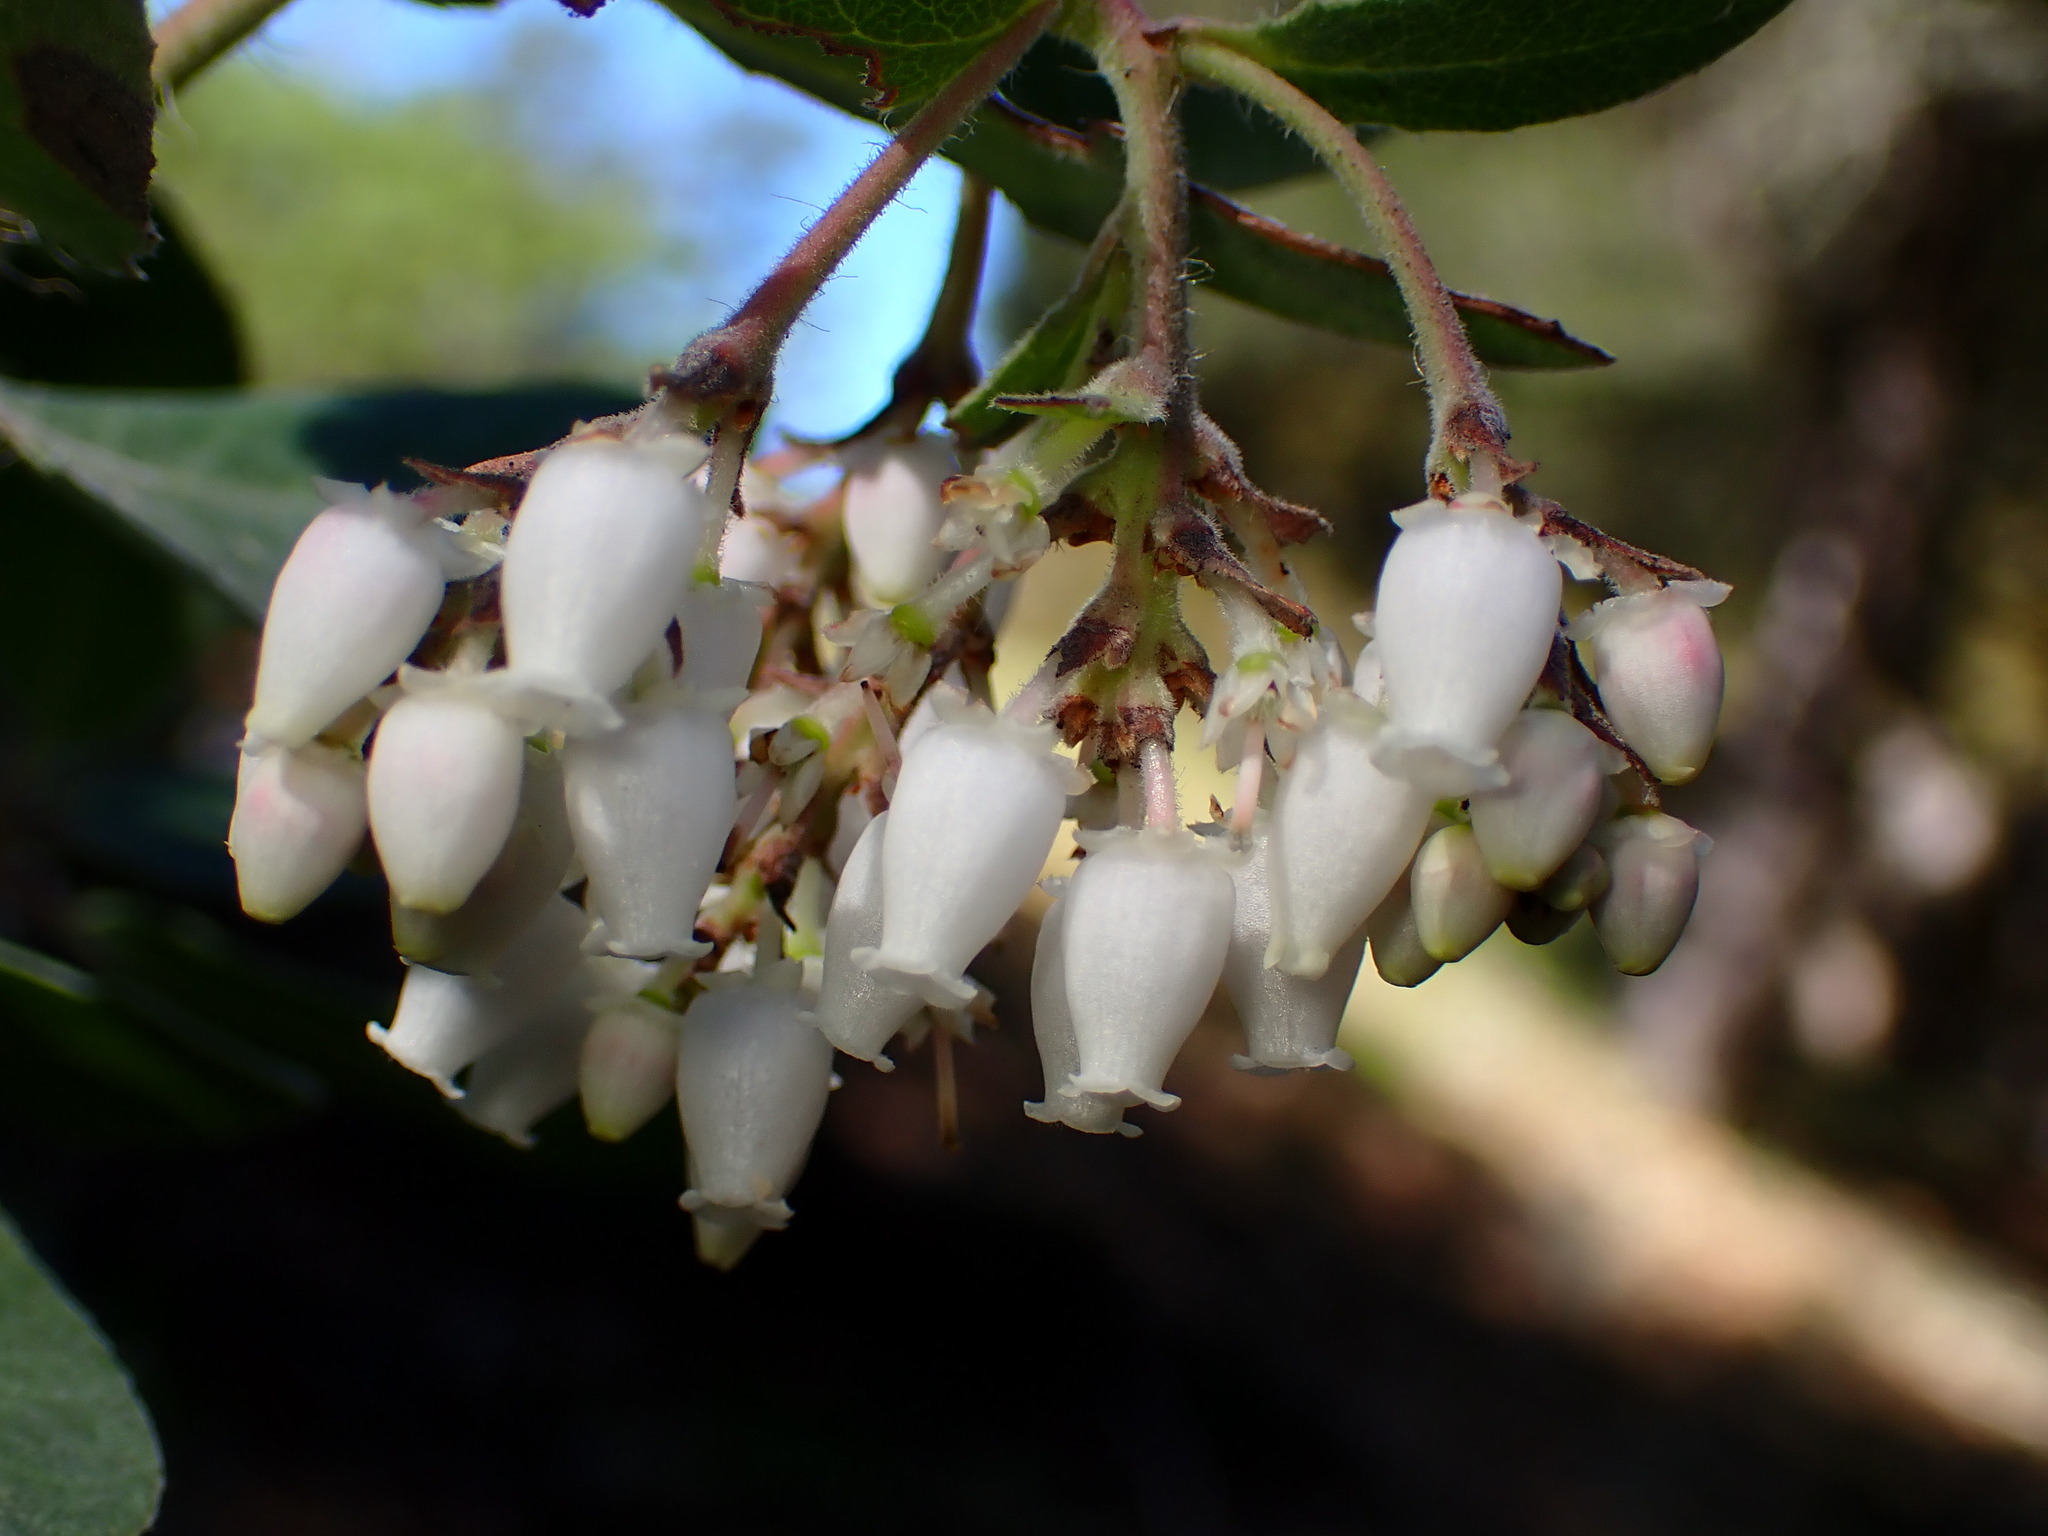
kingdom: Plantae
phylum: Tracheophyta
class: Magnoliopsida
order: Ericales
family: Ericaceae
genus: Arctostaphylos
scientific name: Arctostaphylos crustacea
